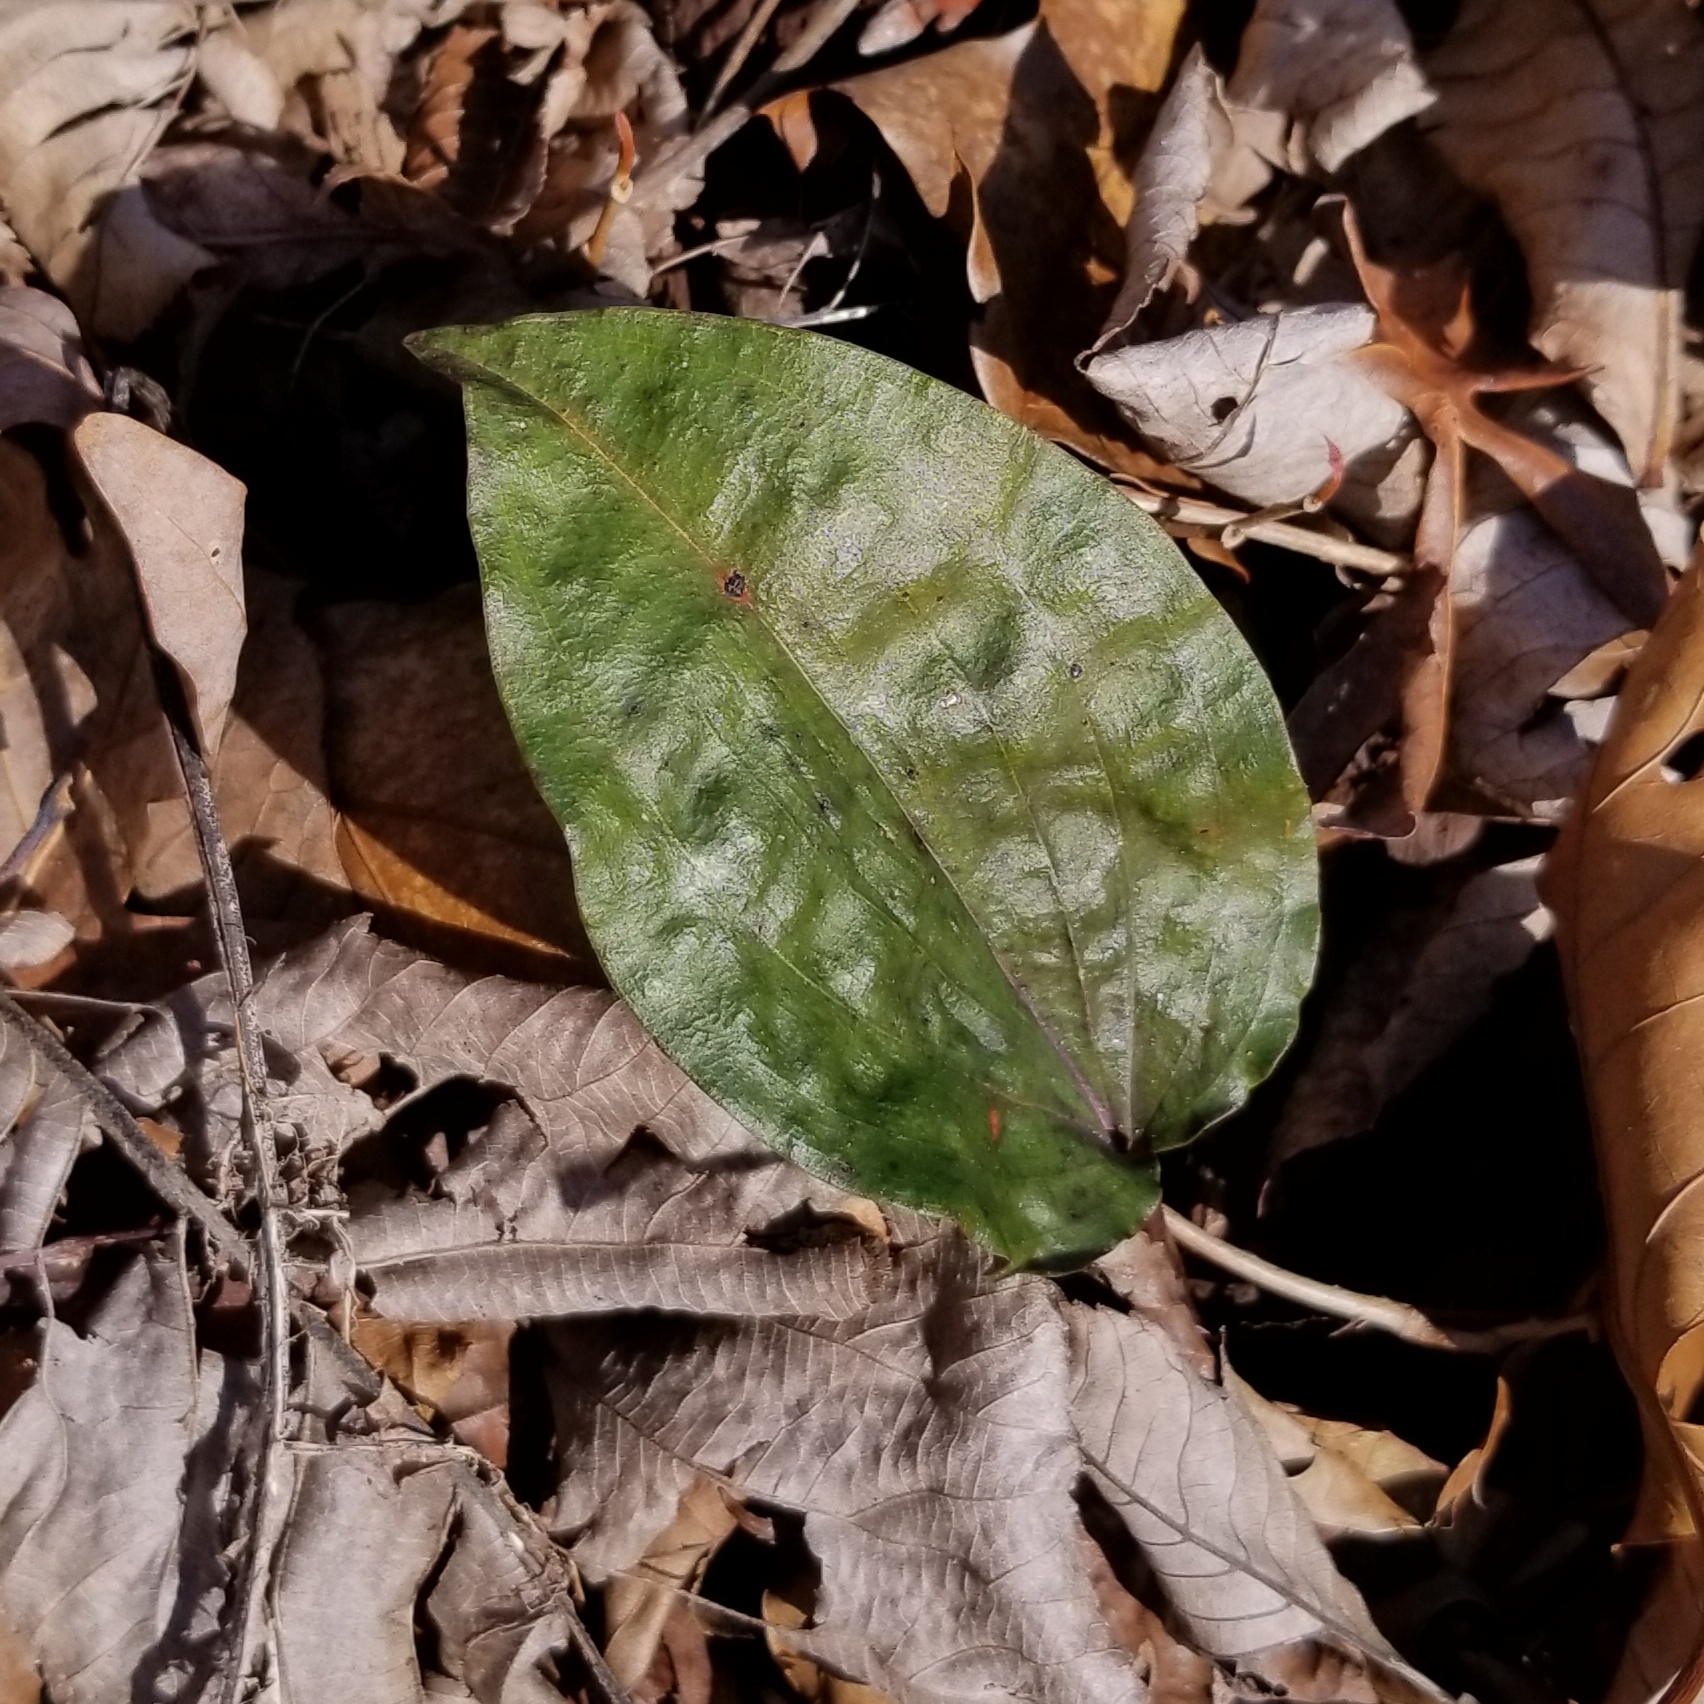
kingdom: Plantae
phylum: Tracheophyta
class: Liliopsida
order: Asparagales
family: Orchidaceae
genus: Tipularia
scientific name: Tipularia discolor
